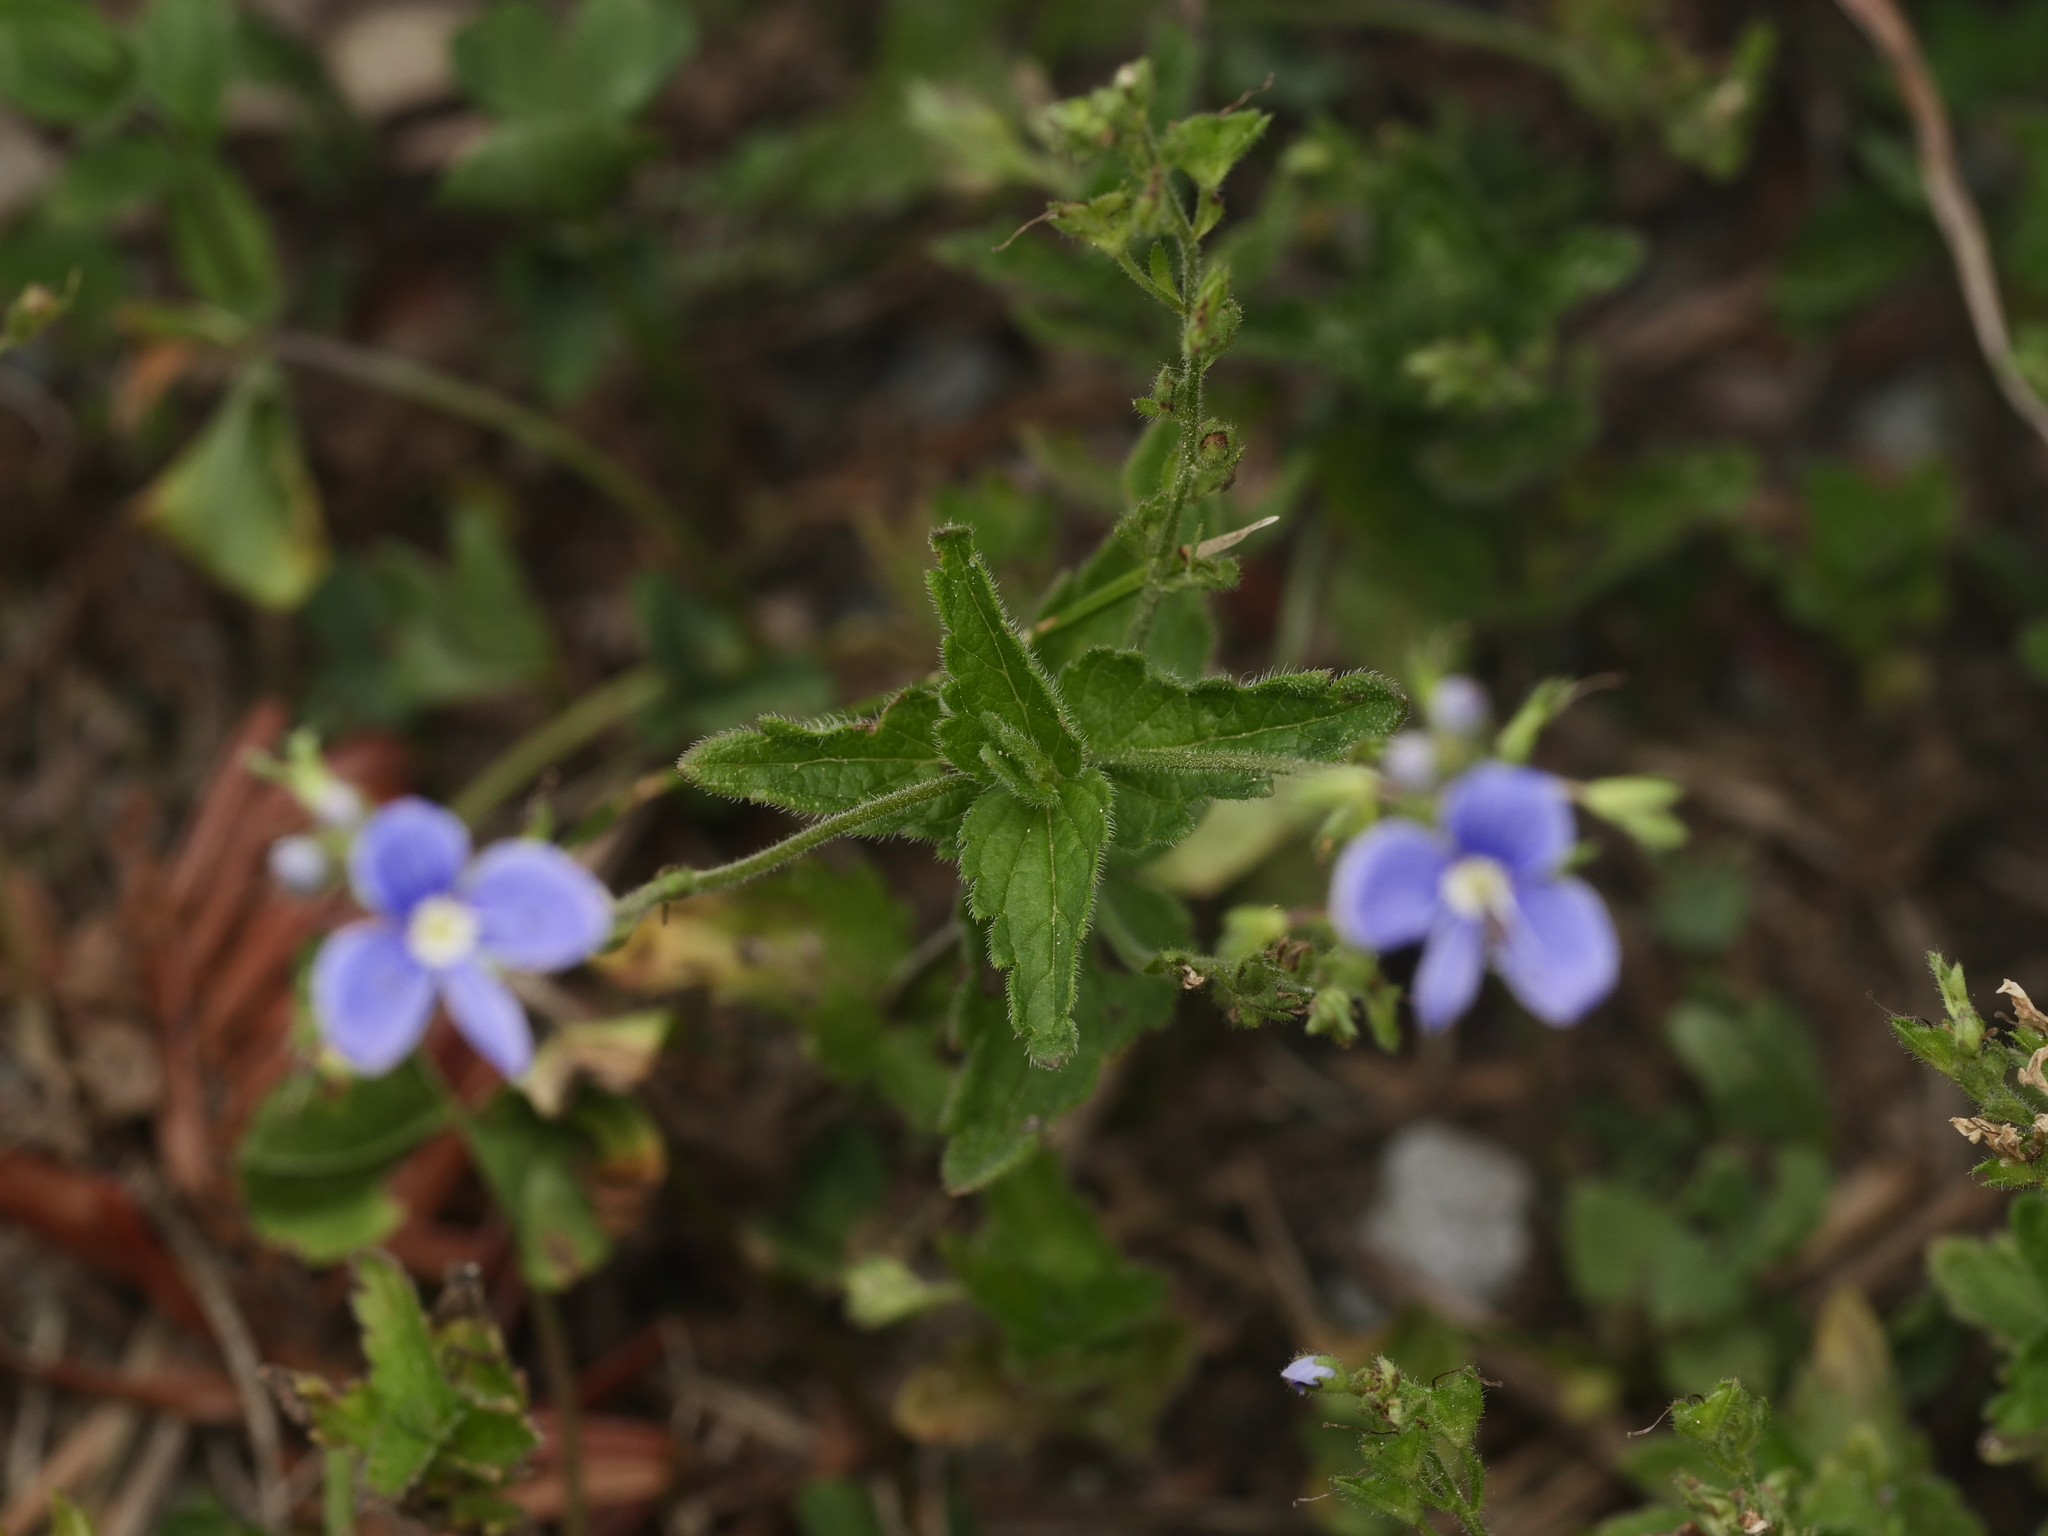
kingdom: Plantae
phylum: Tracheophyta
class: Magnoliopsida
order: Lamiales
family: Plantaginaceae
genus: Veronica
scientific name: Veronica chamaedrys
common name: Germander speedwell
